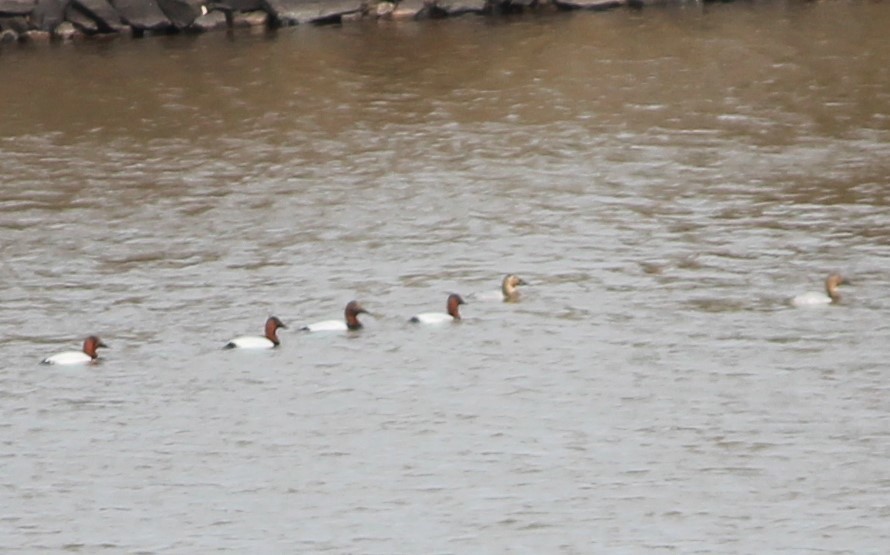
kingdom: Animalia
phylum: Chordata
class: Aves
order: Anseriformes
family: Anatidae
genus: Aythya
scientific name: Aythya valisineria
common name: Canvasback
